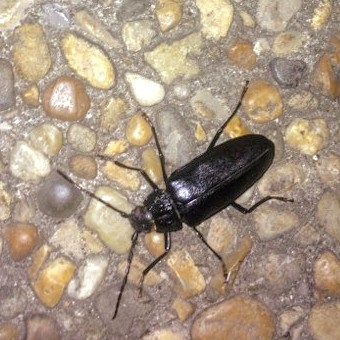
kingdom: Animalia
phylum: Arthropoda
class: Insecta
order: Coleoptera
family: Cerambycidae
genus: Ergates
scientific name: Ergates faber
